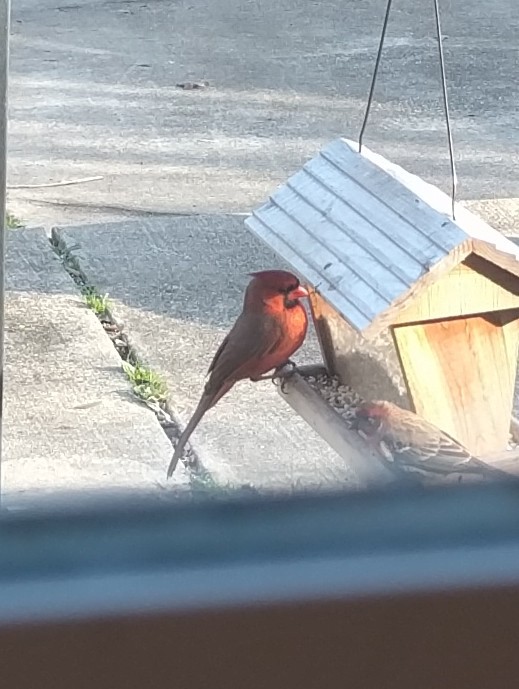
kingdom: Animalia
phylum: Chordata
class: Aves
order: Passeriformes
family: Cardinalidae
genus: Cardinalis
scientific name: Cardinalis cardinalis
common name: Northern cardinal
